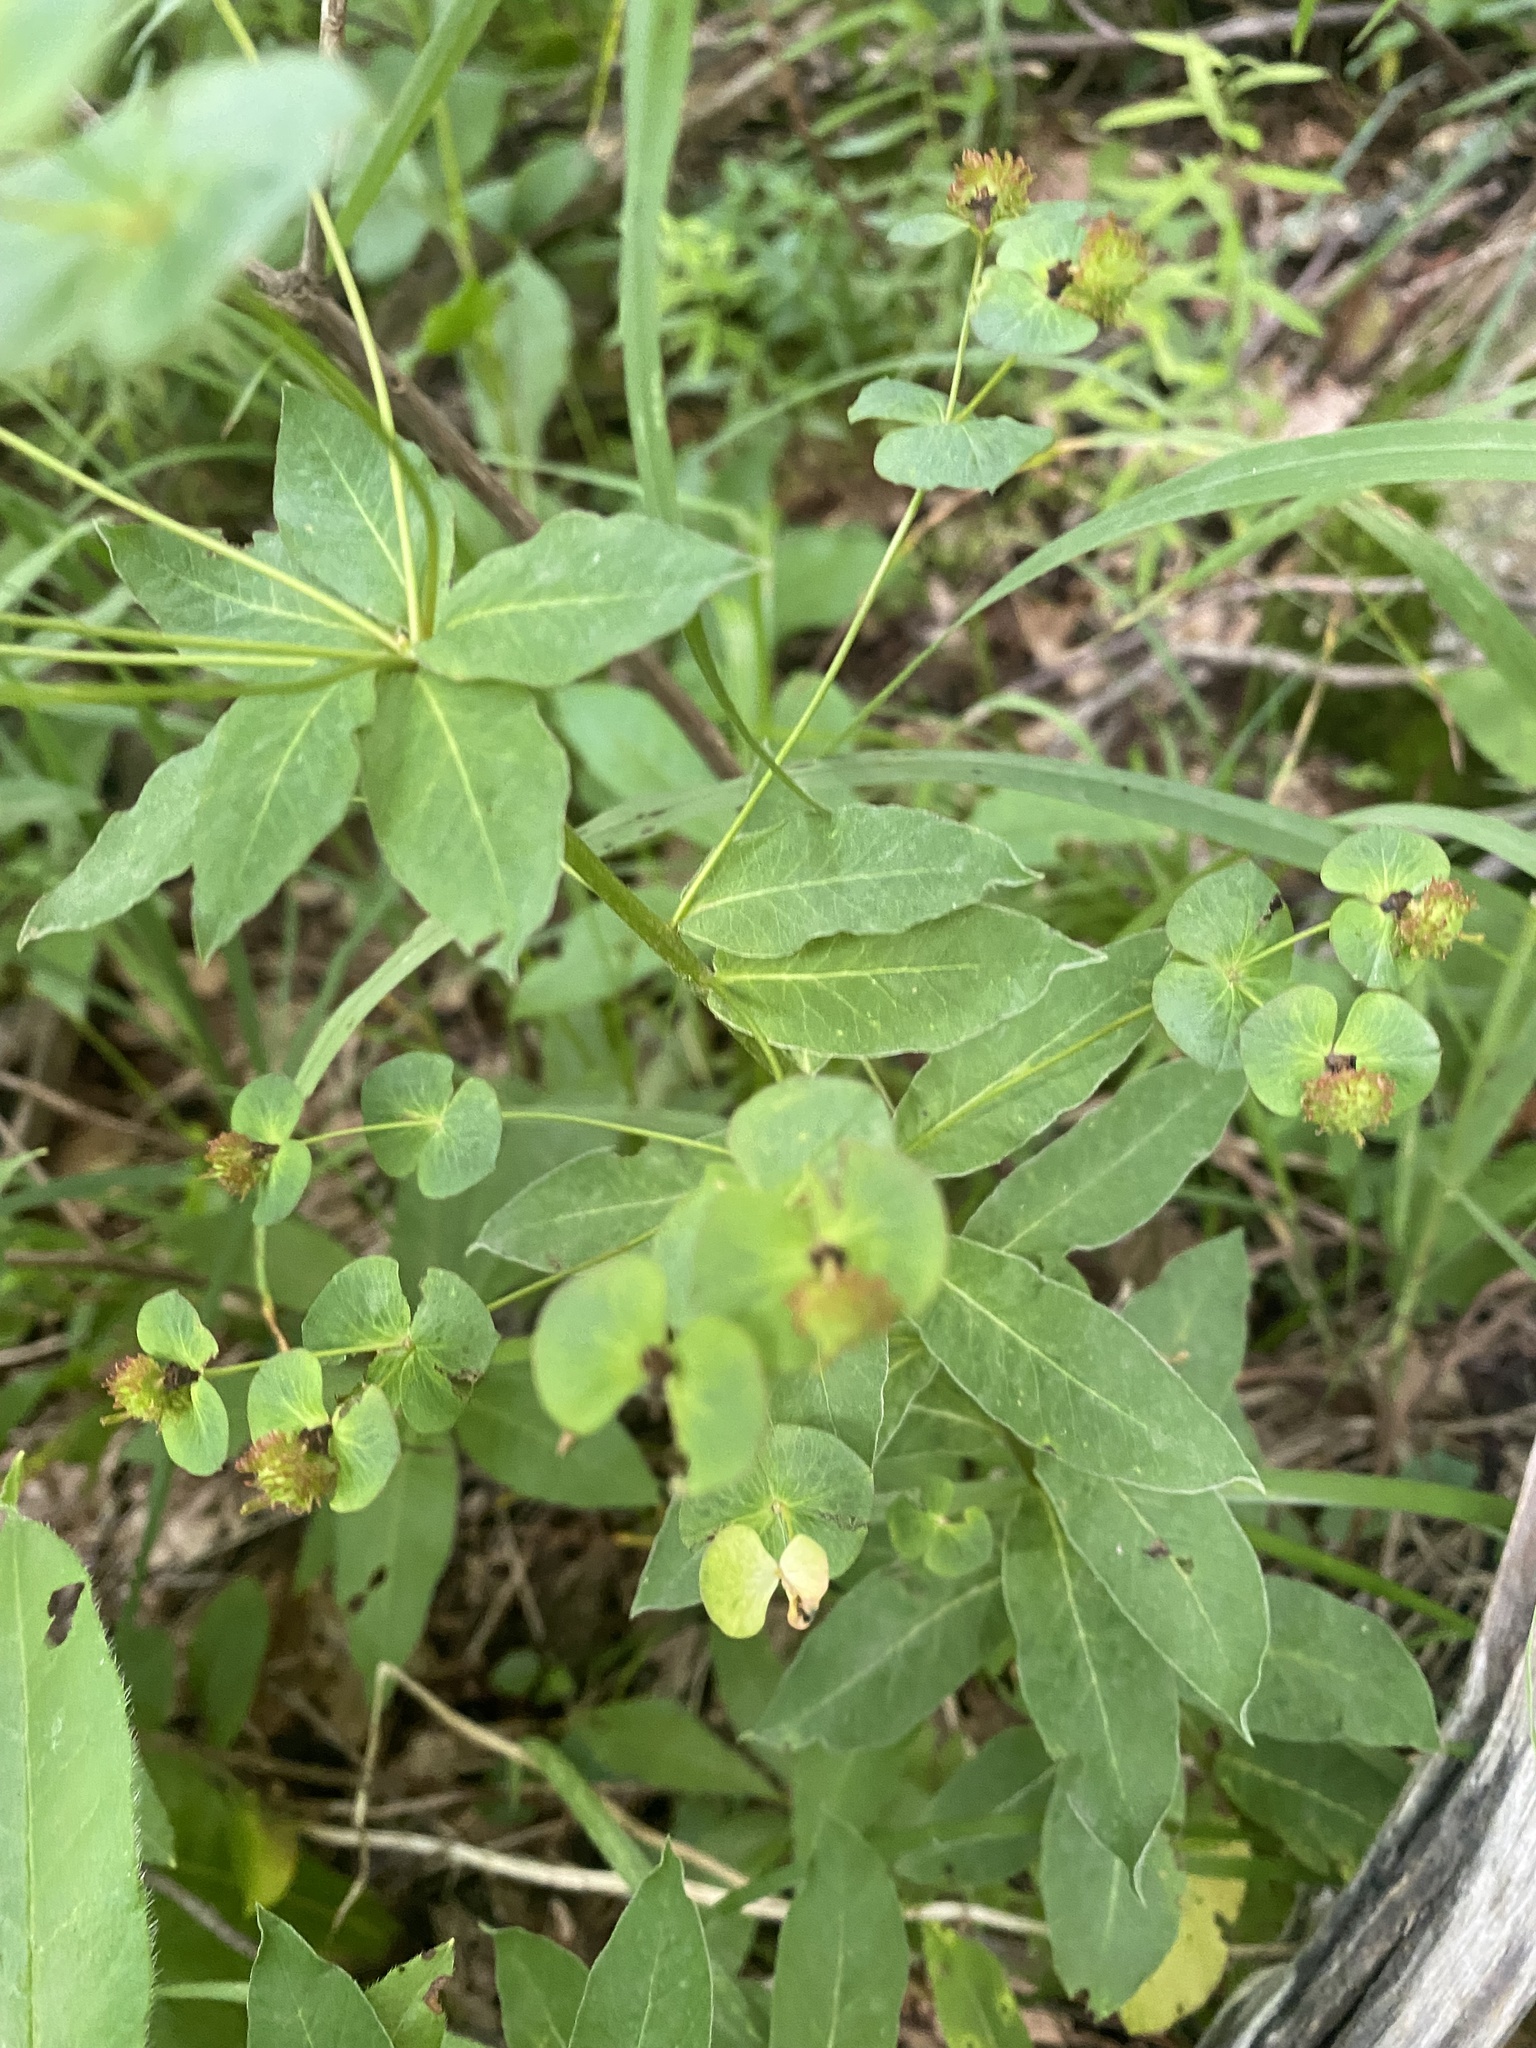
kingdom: Plantae
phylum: Tracheophyta
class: Magnoliopsida
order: Malpighiales
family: Euphorbiaceae
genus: Euphorbia
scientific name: Euphorbia squamosa
